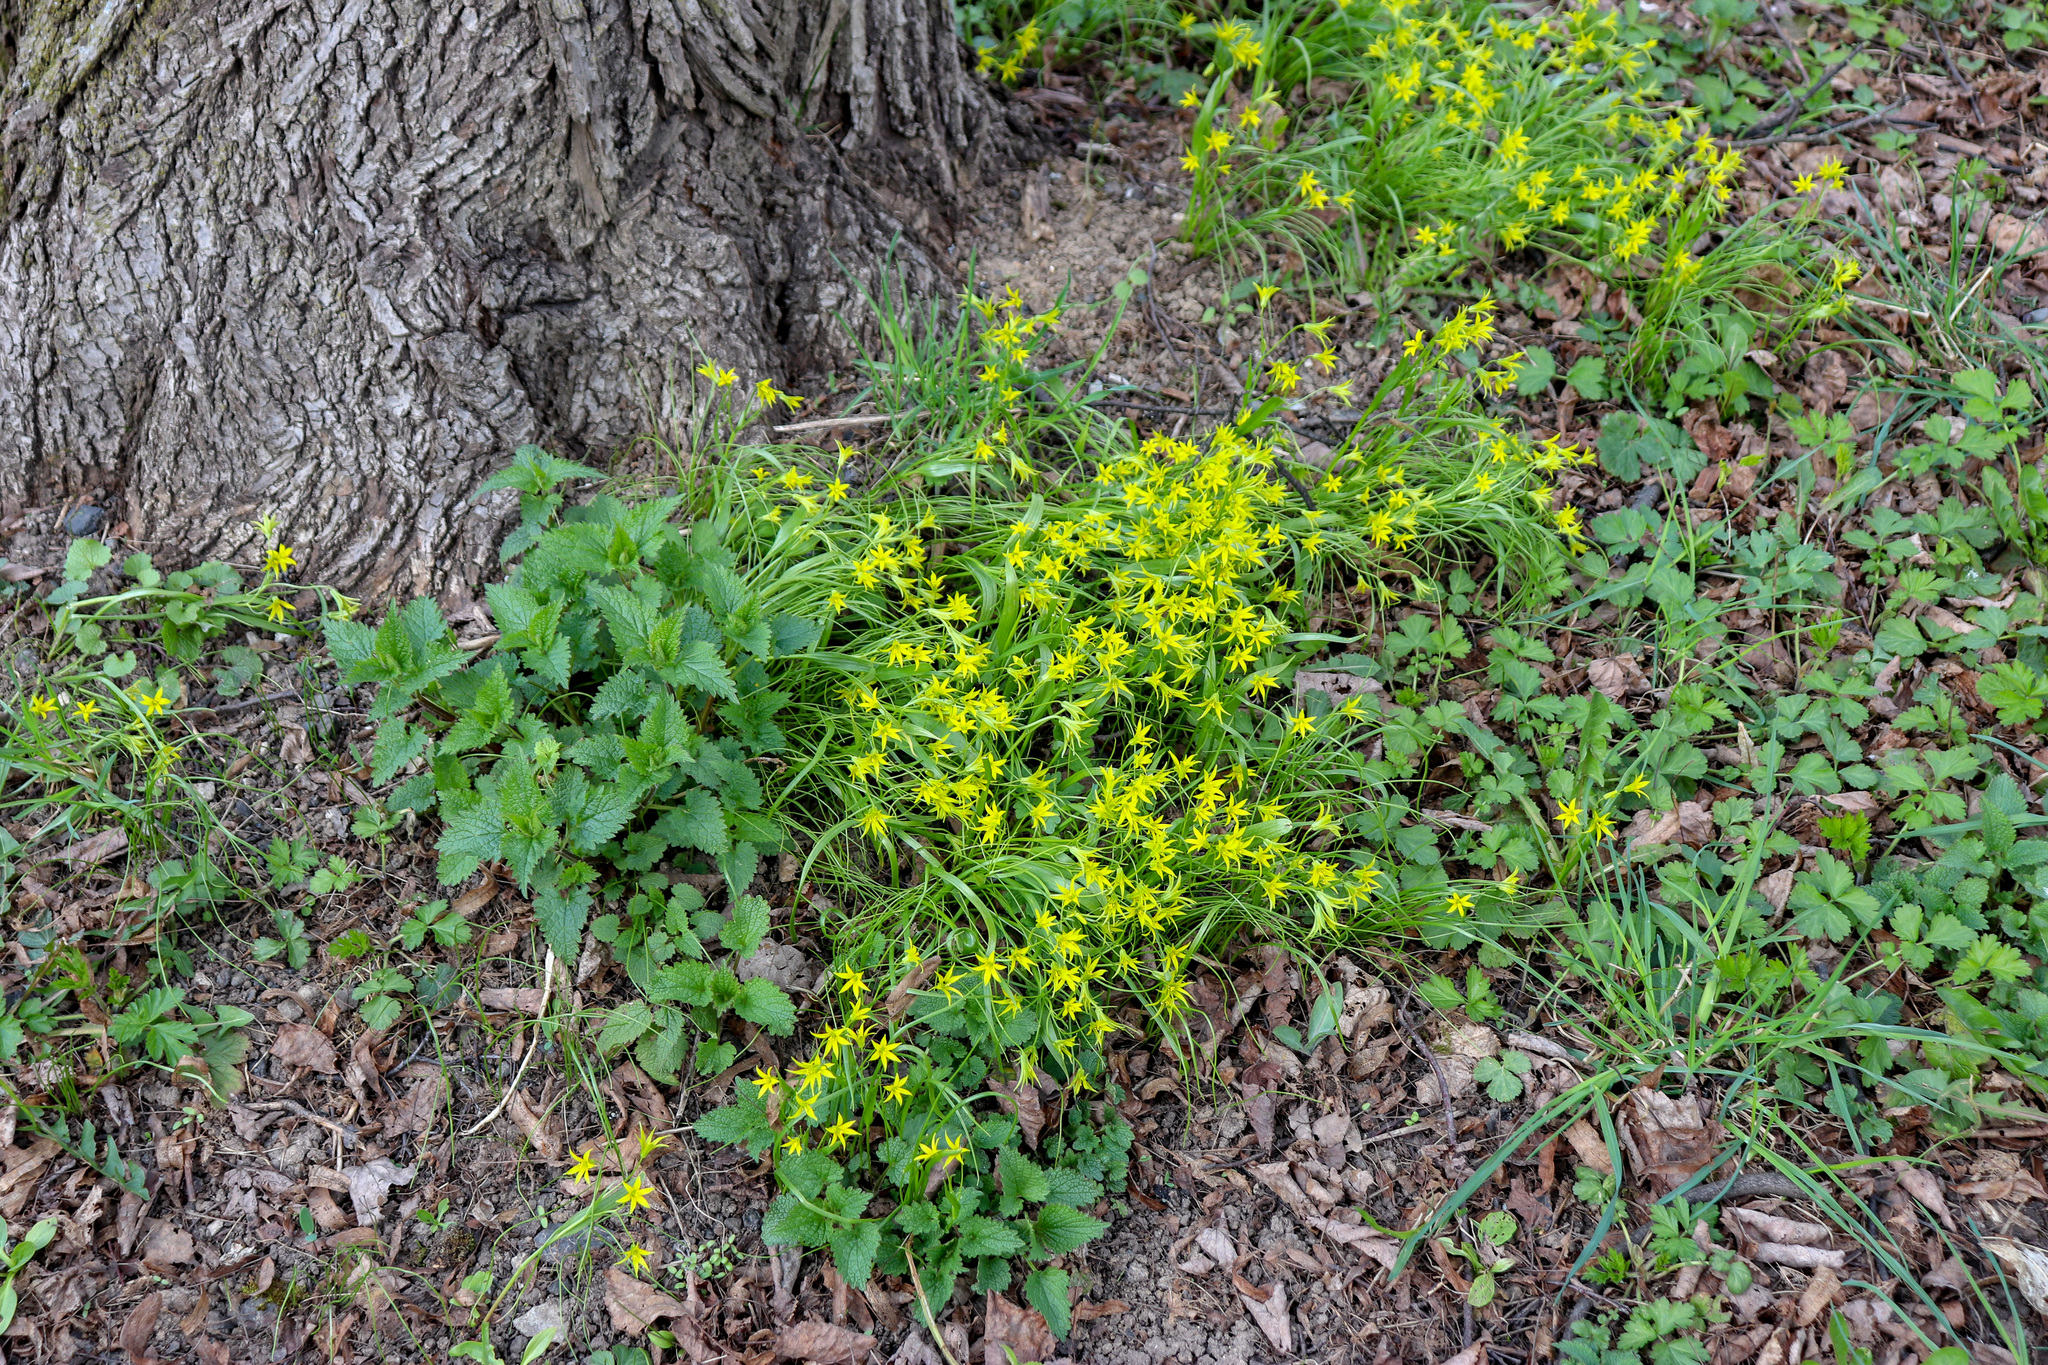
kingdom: Plantae
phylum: Tracheophyta
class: Liliopsida
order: Liliales
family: Liliaceae
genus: Gagea
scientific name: Gagea minima
